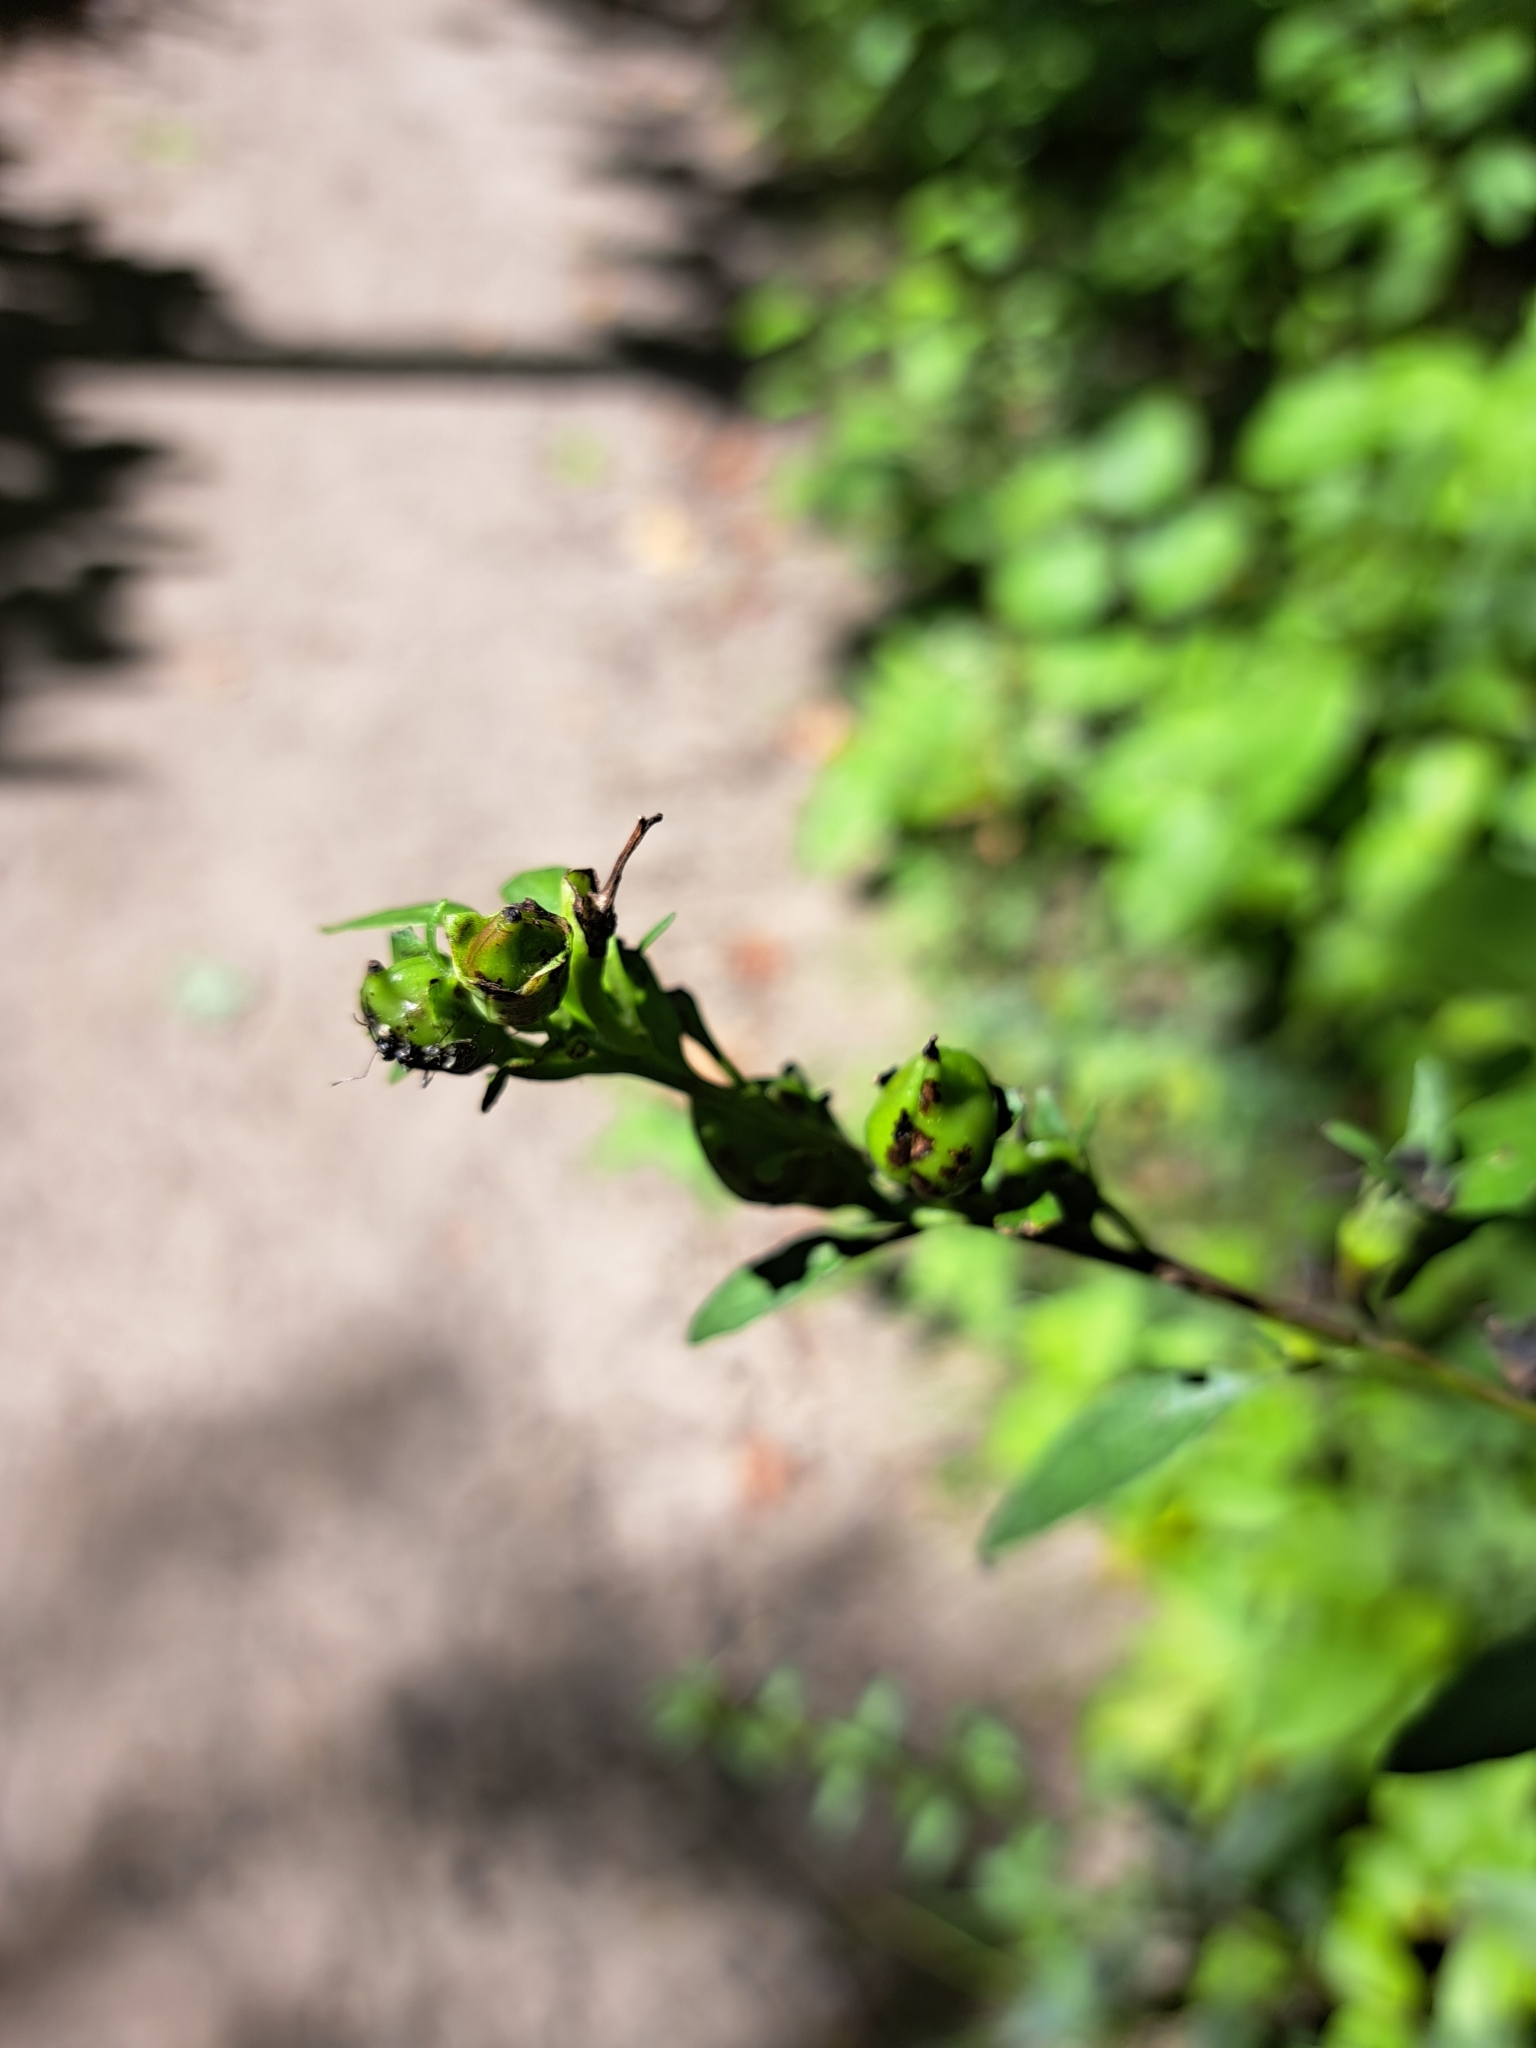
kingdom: Plantae
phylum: Tracheophyta
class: Magnoliopsida
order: Lamiales
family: Orobanchaceae
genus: Aureolaria
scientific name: Aureolaria flava
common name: Smooth false foxglove
